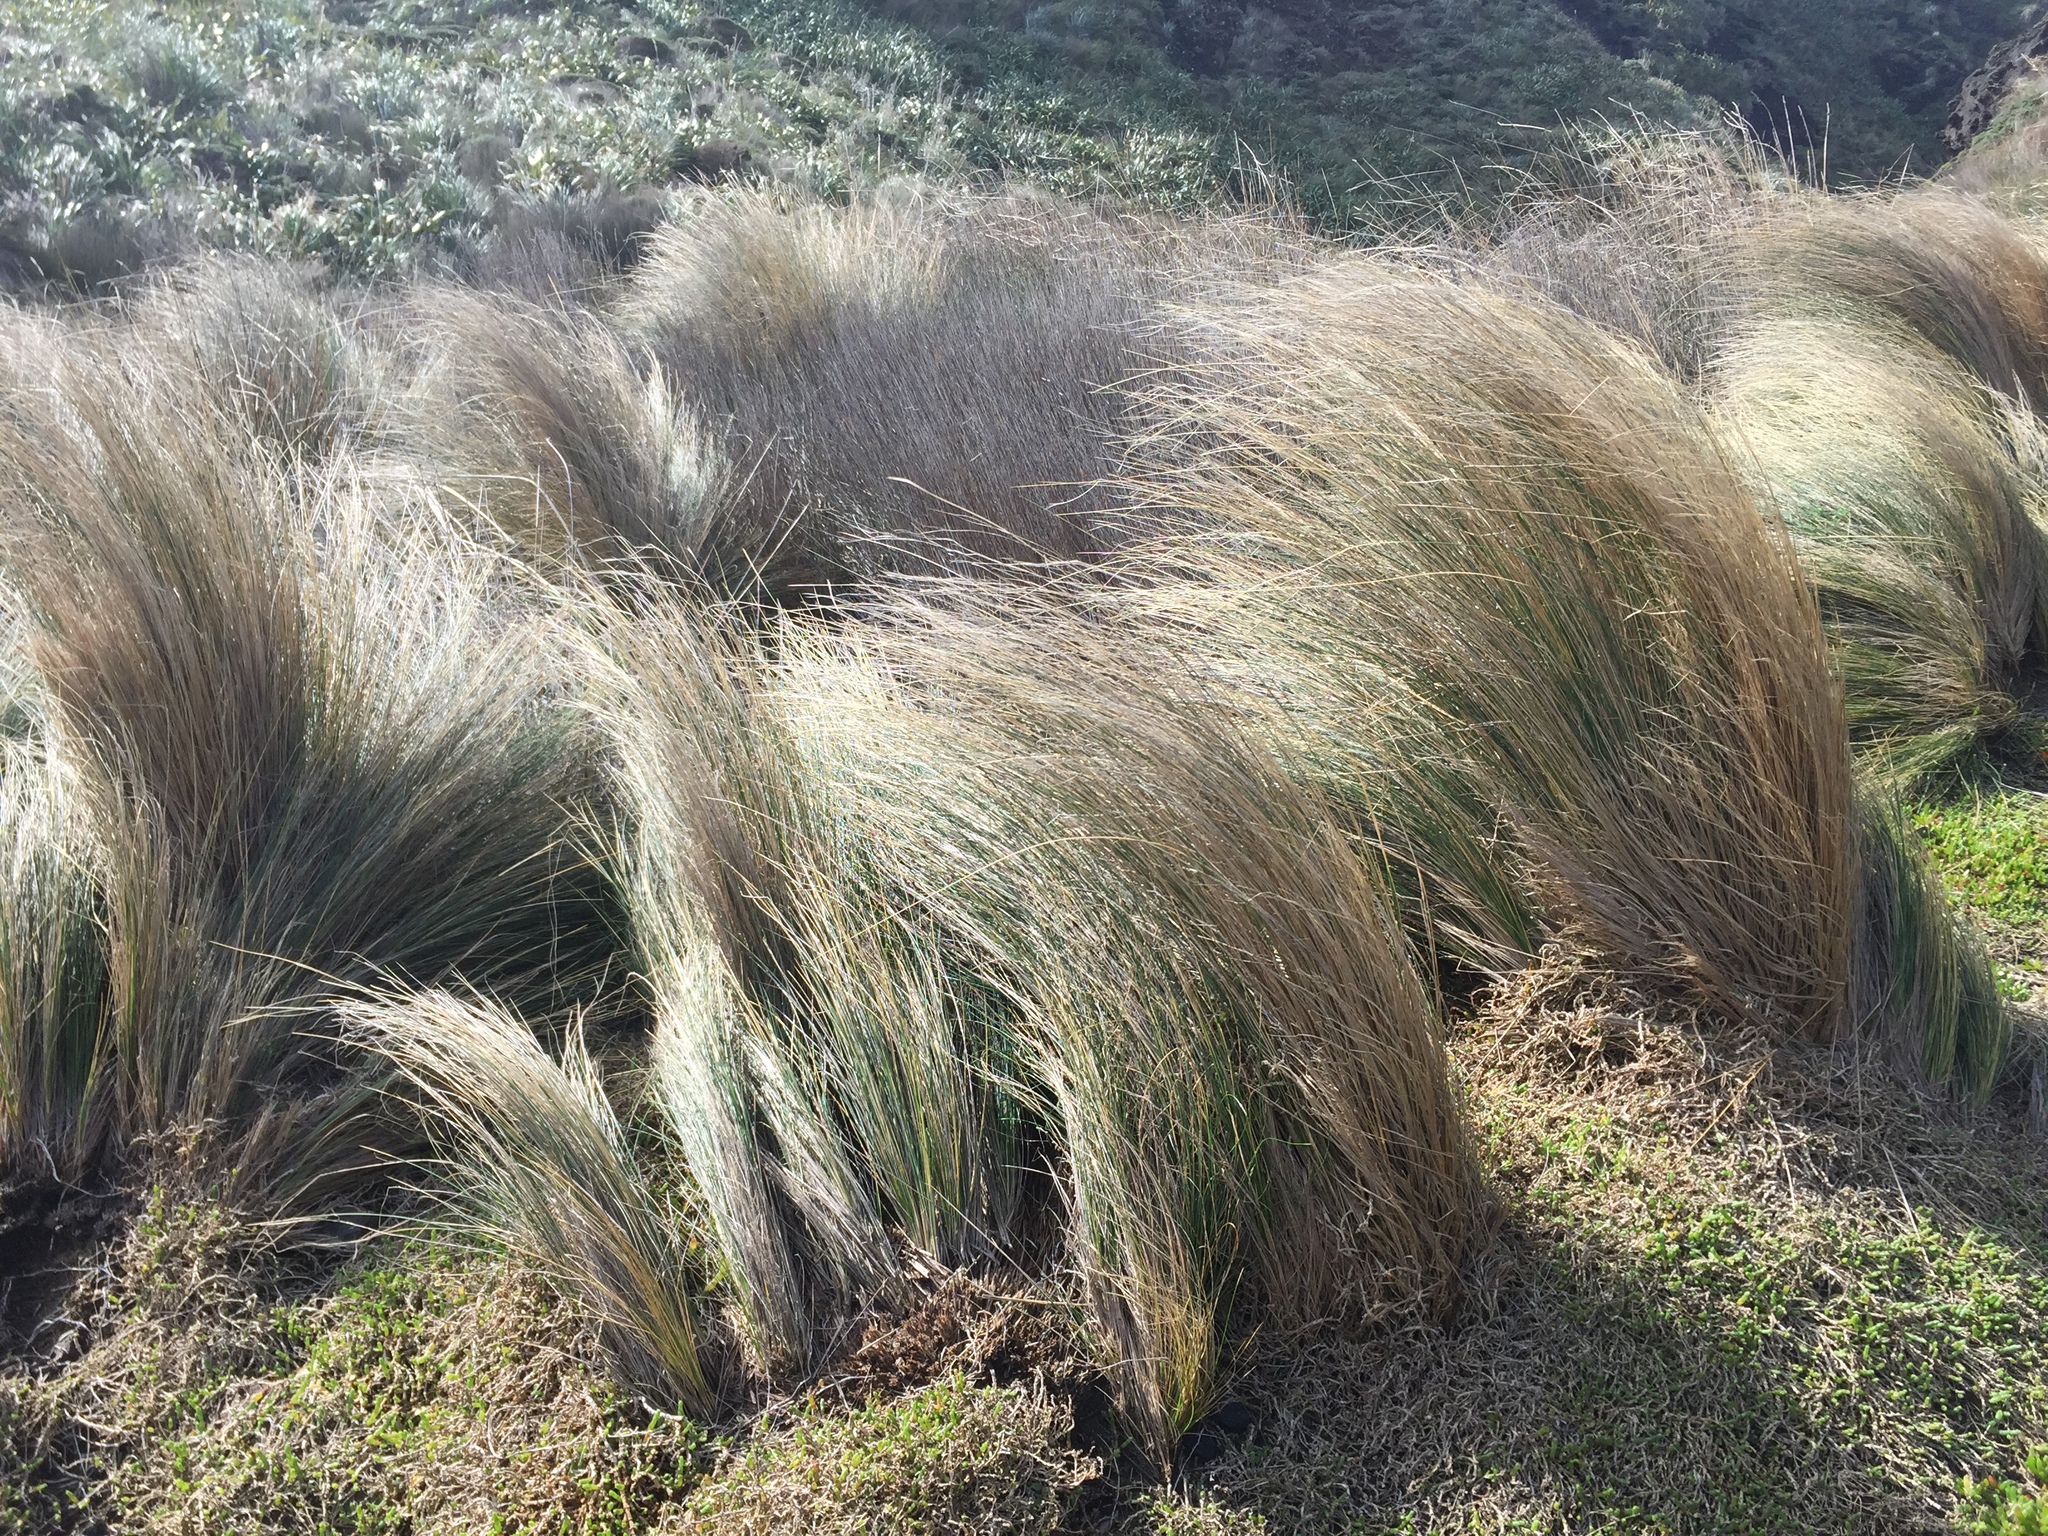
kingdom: Plantae
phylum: Tracheophyta
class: Liliopsida
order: Poales
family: Poaceae
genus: Austrostipa
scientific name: Austrostipa stipoides
